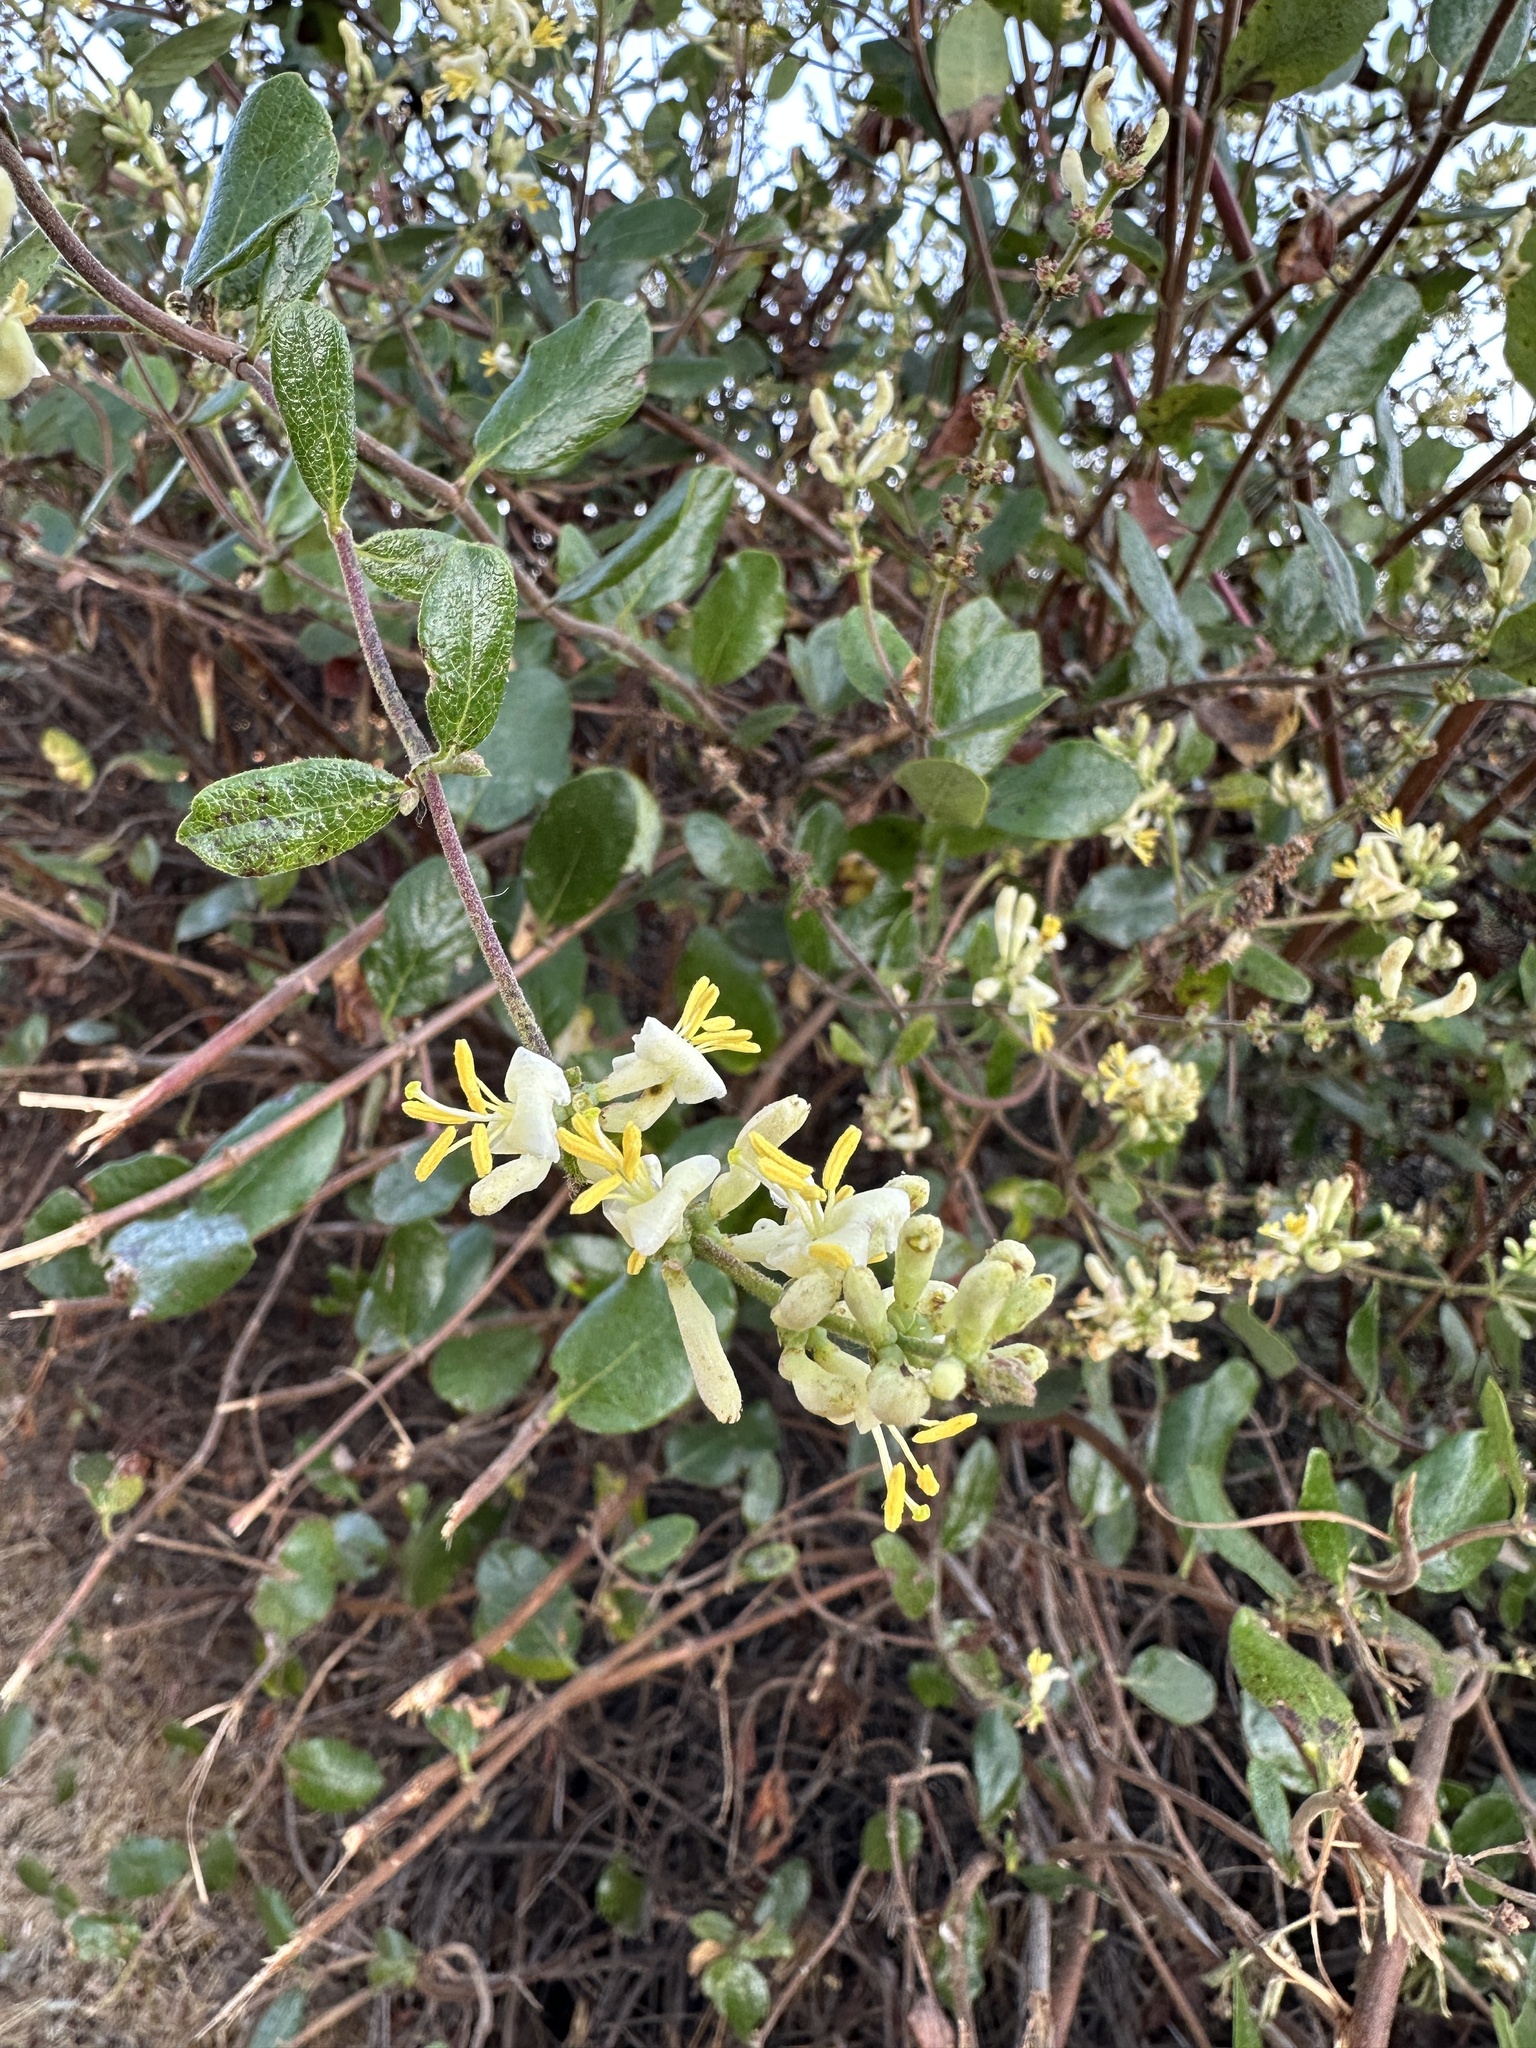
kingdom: Plantae
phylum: Tracheophyta
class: Magnoliopsida
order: Dipsacales
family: Caprifoliaceae
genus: Lonicera
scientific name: Lonicera subspicata
